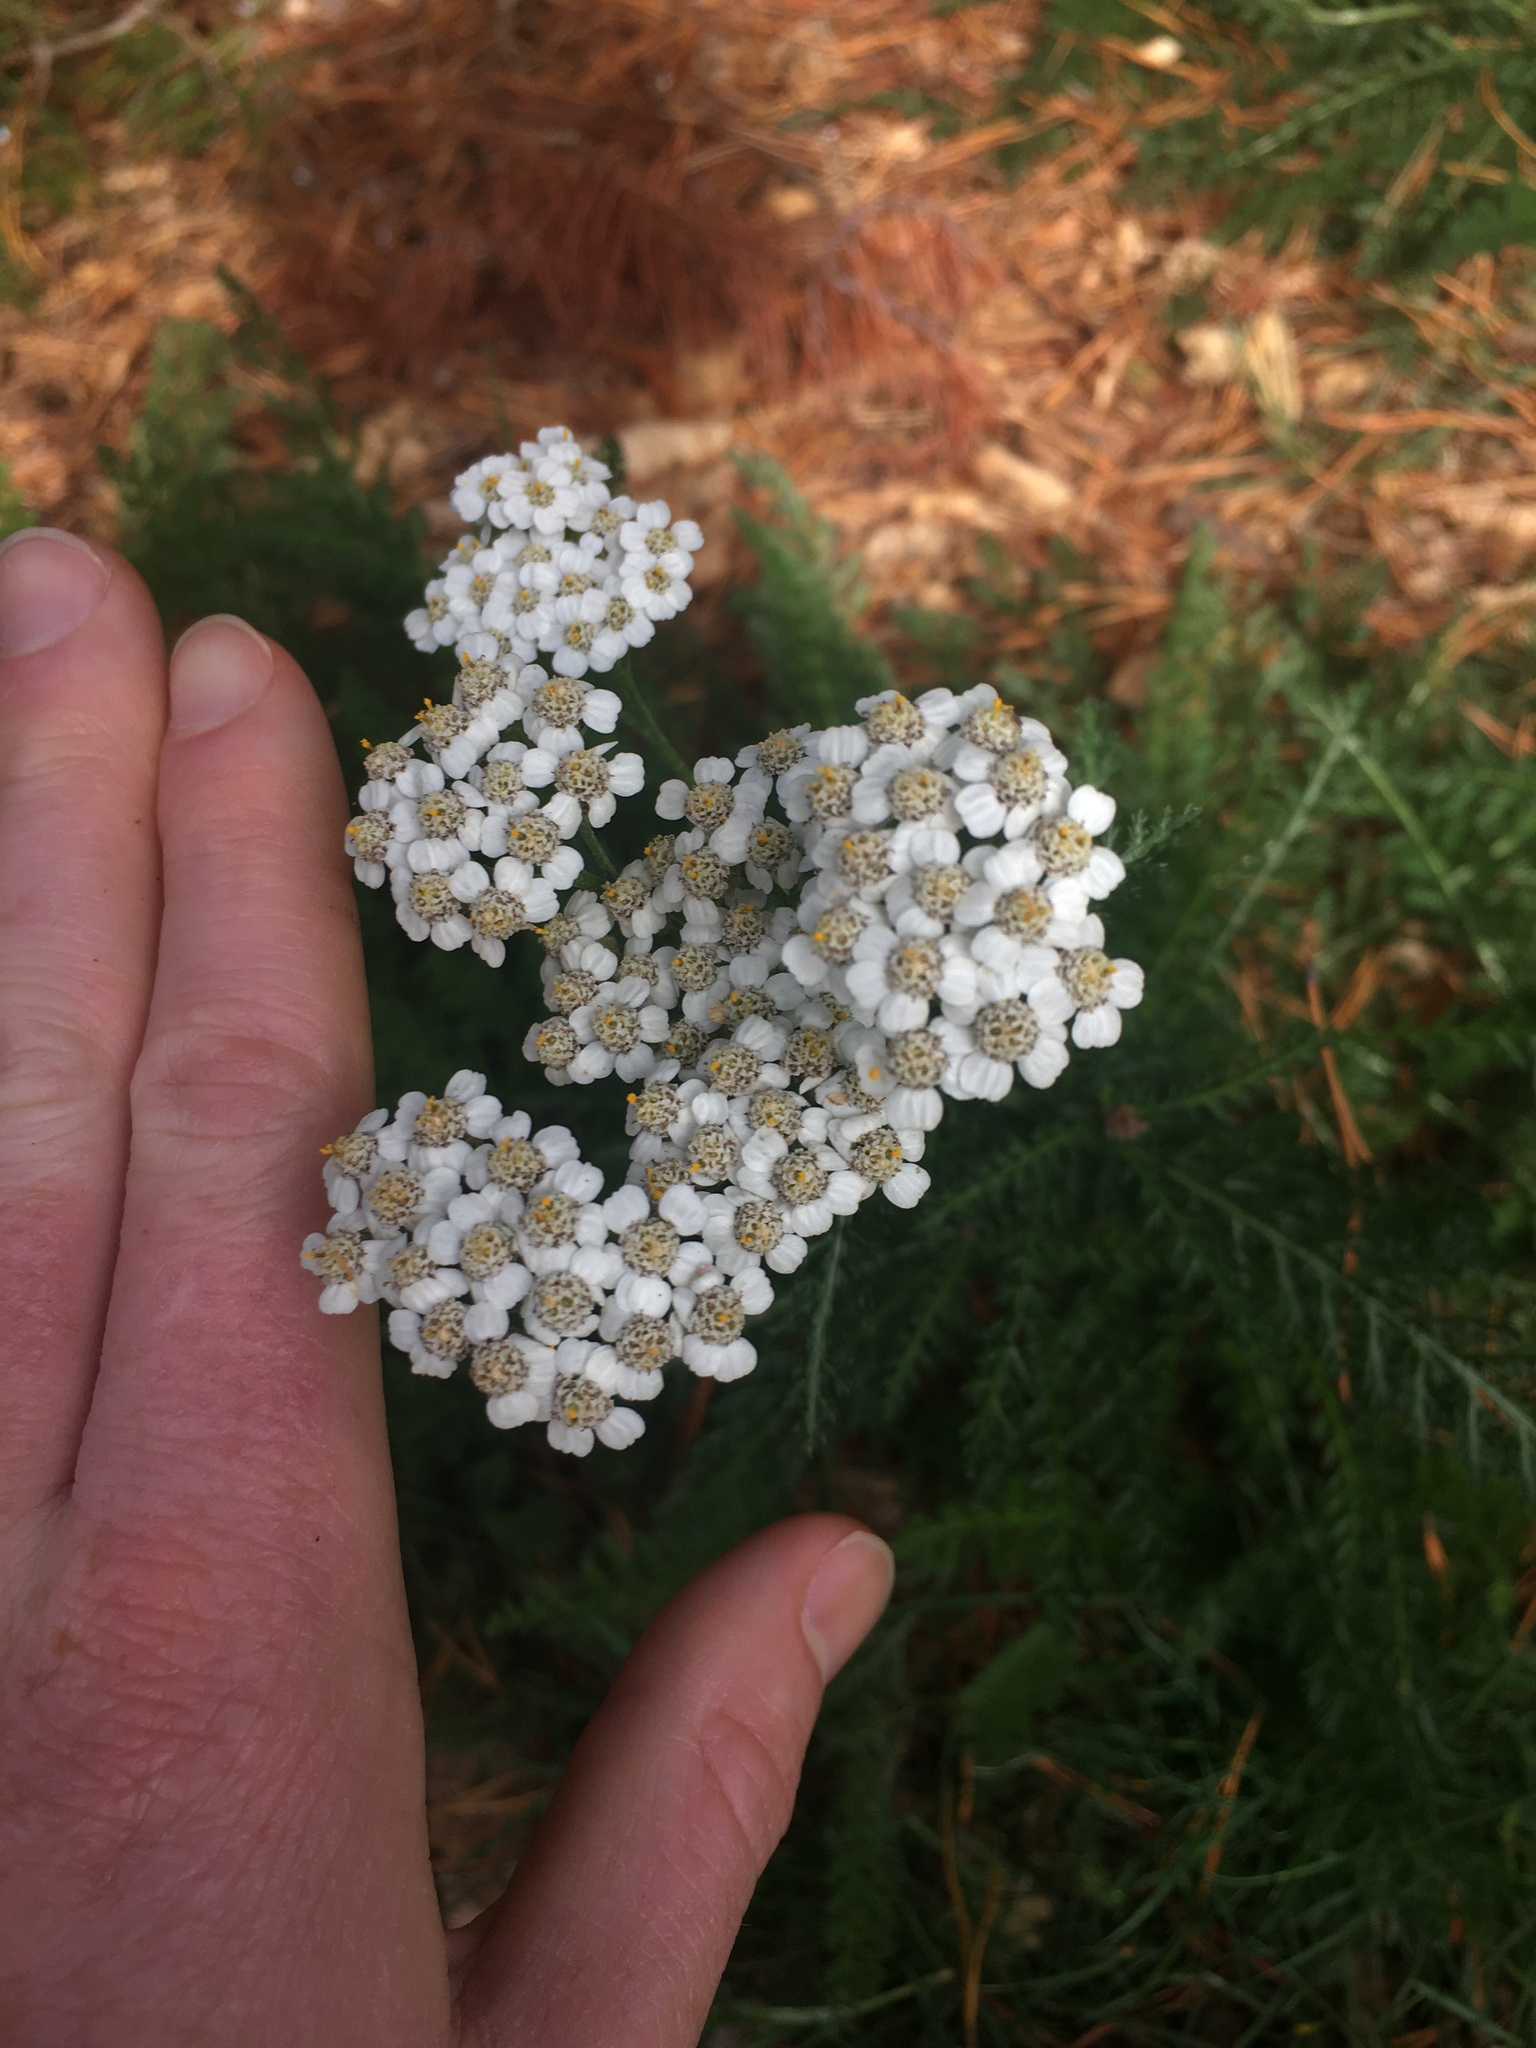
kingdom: Plantae
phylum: Tracheophyta
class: Magnoliopsida
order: Asterales
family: Asteraceae
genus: Achillea
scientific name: Achillea millefolium
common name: Yarrow
